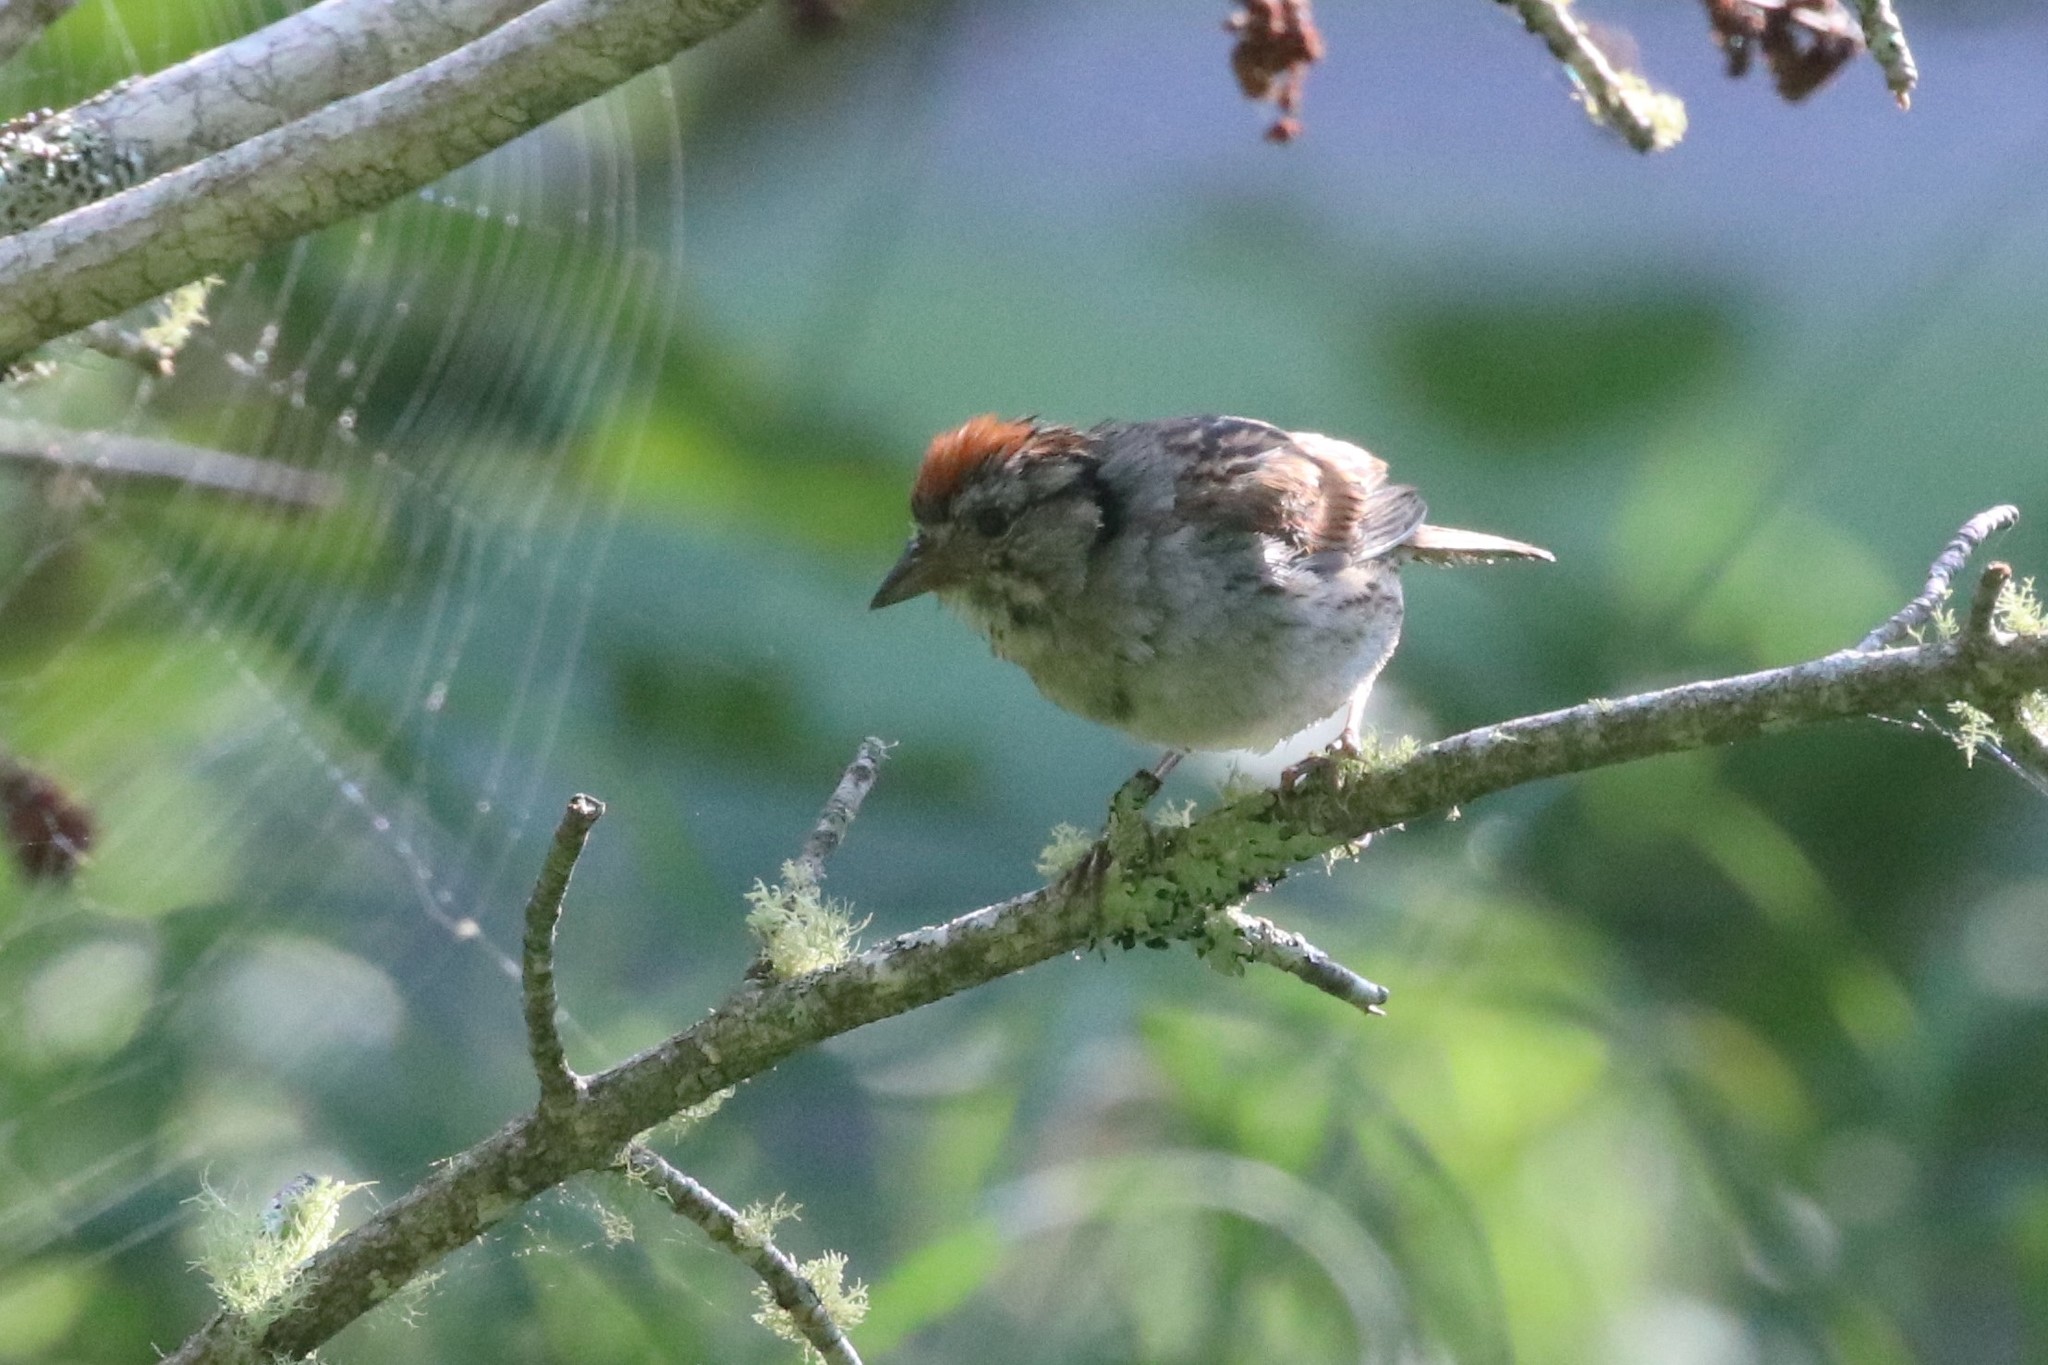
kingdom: Animalia
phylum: Chordata
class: Aves
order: Passeriformes
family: Passerellidae
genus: Melospiza
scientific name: Melospiza georgiana
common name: Swamp sparrow
